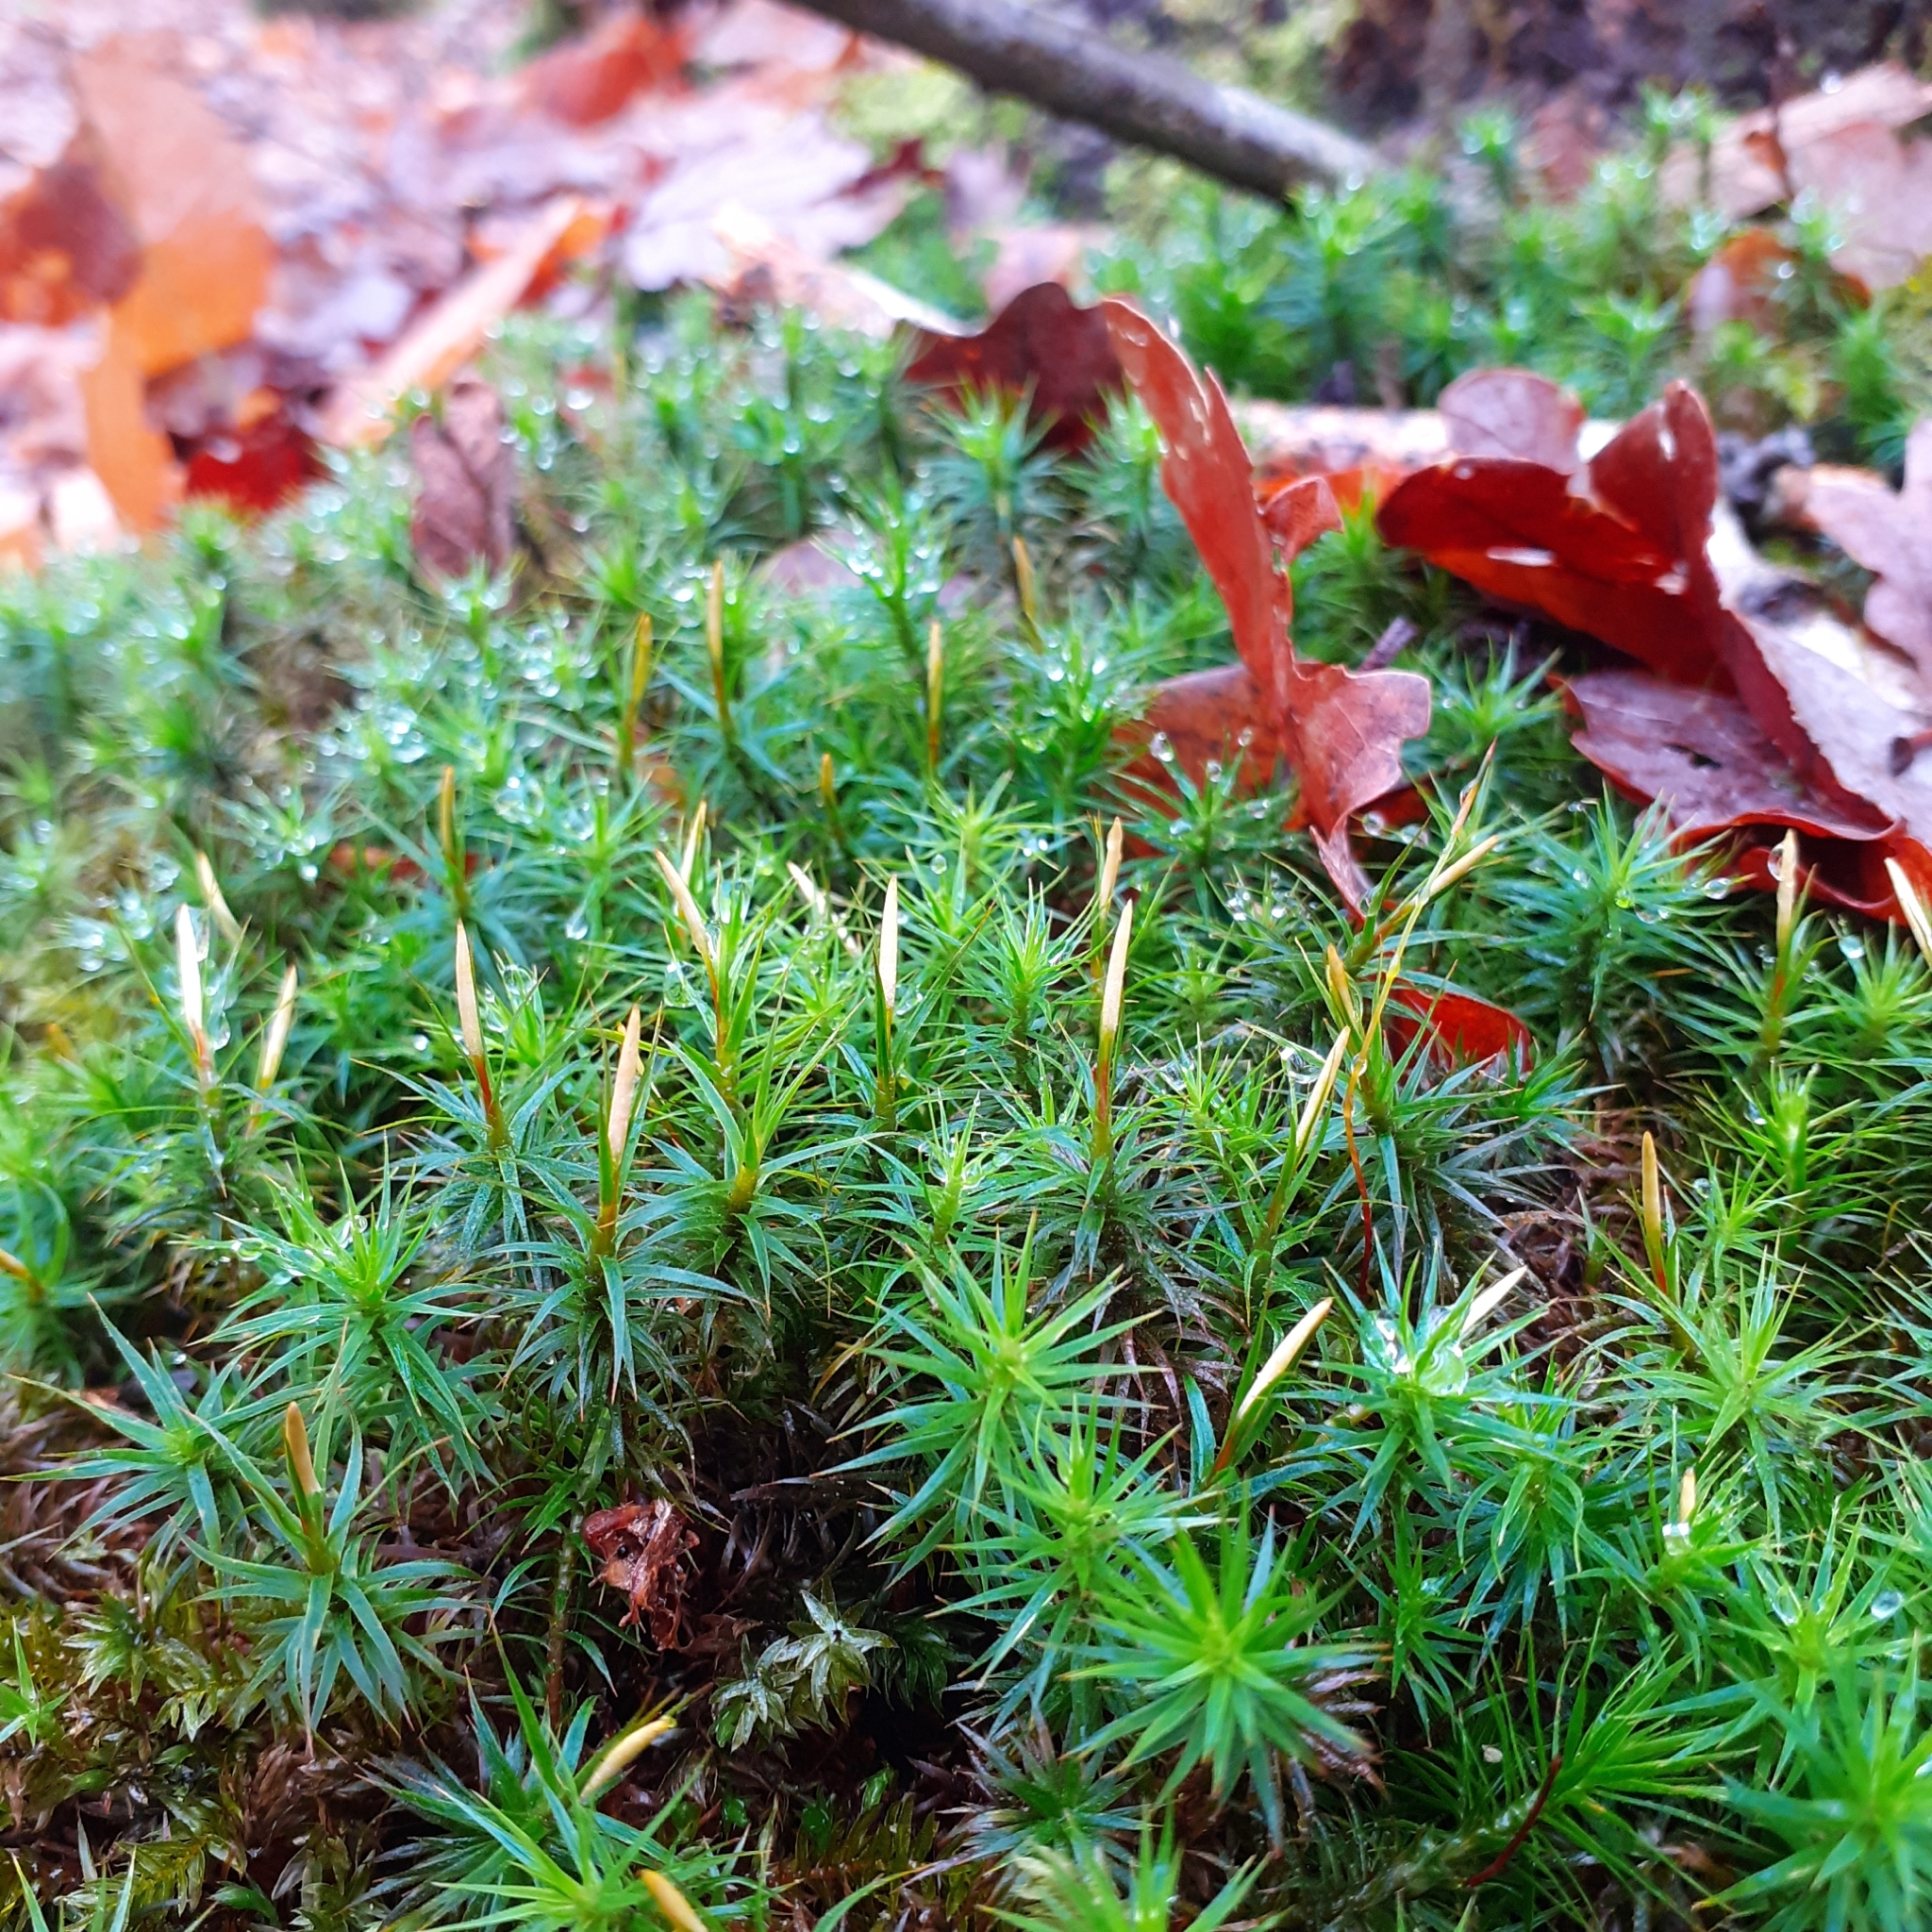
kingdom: Plantae
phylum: Bryophyta
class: Polytrichopsida
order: Polytrichales
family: Polytrichaceae
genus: Polytrichum
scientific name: Polytrichum formosum
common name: Bank haircap moss
